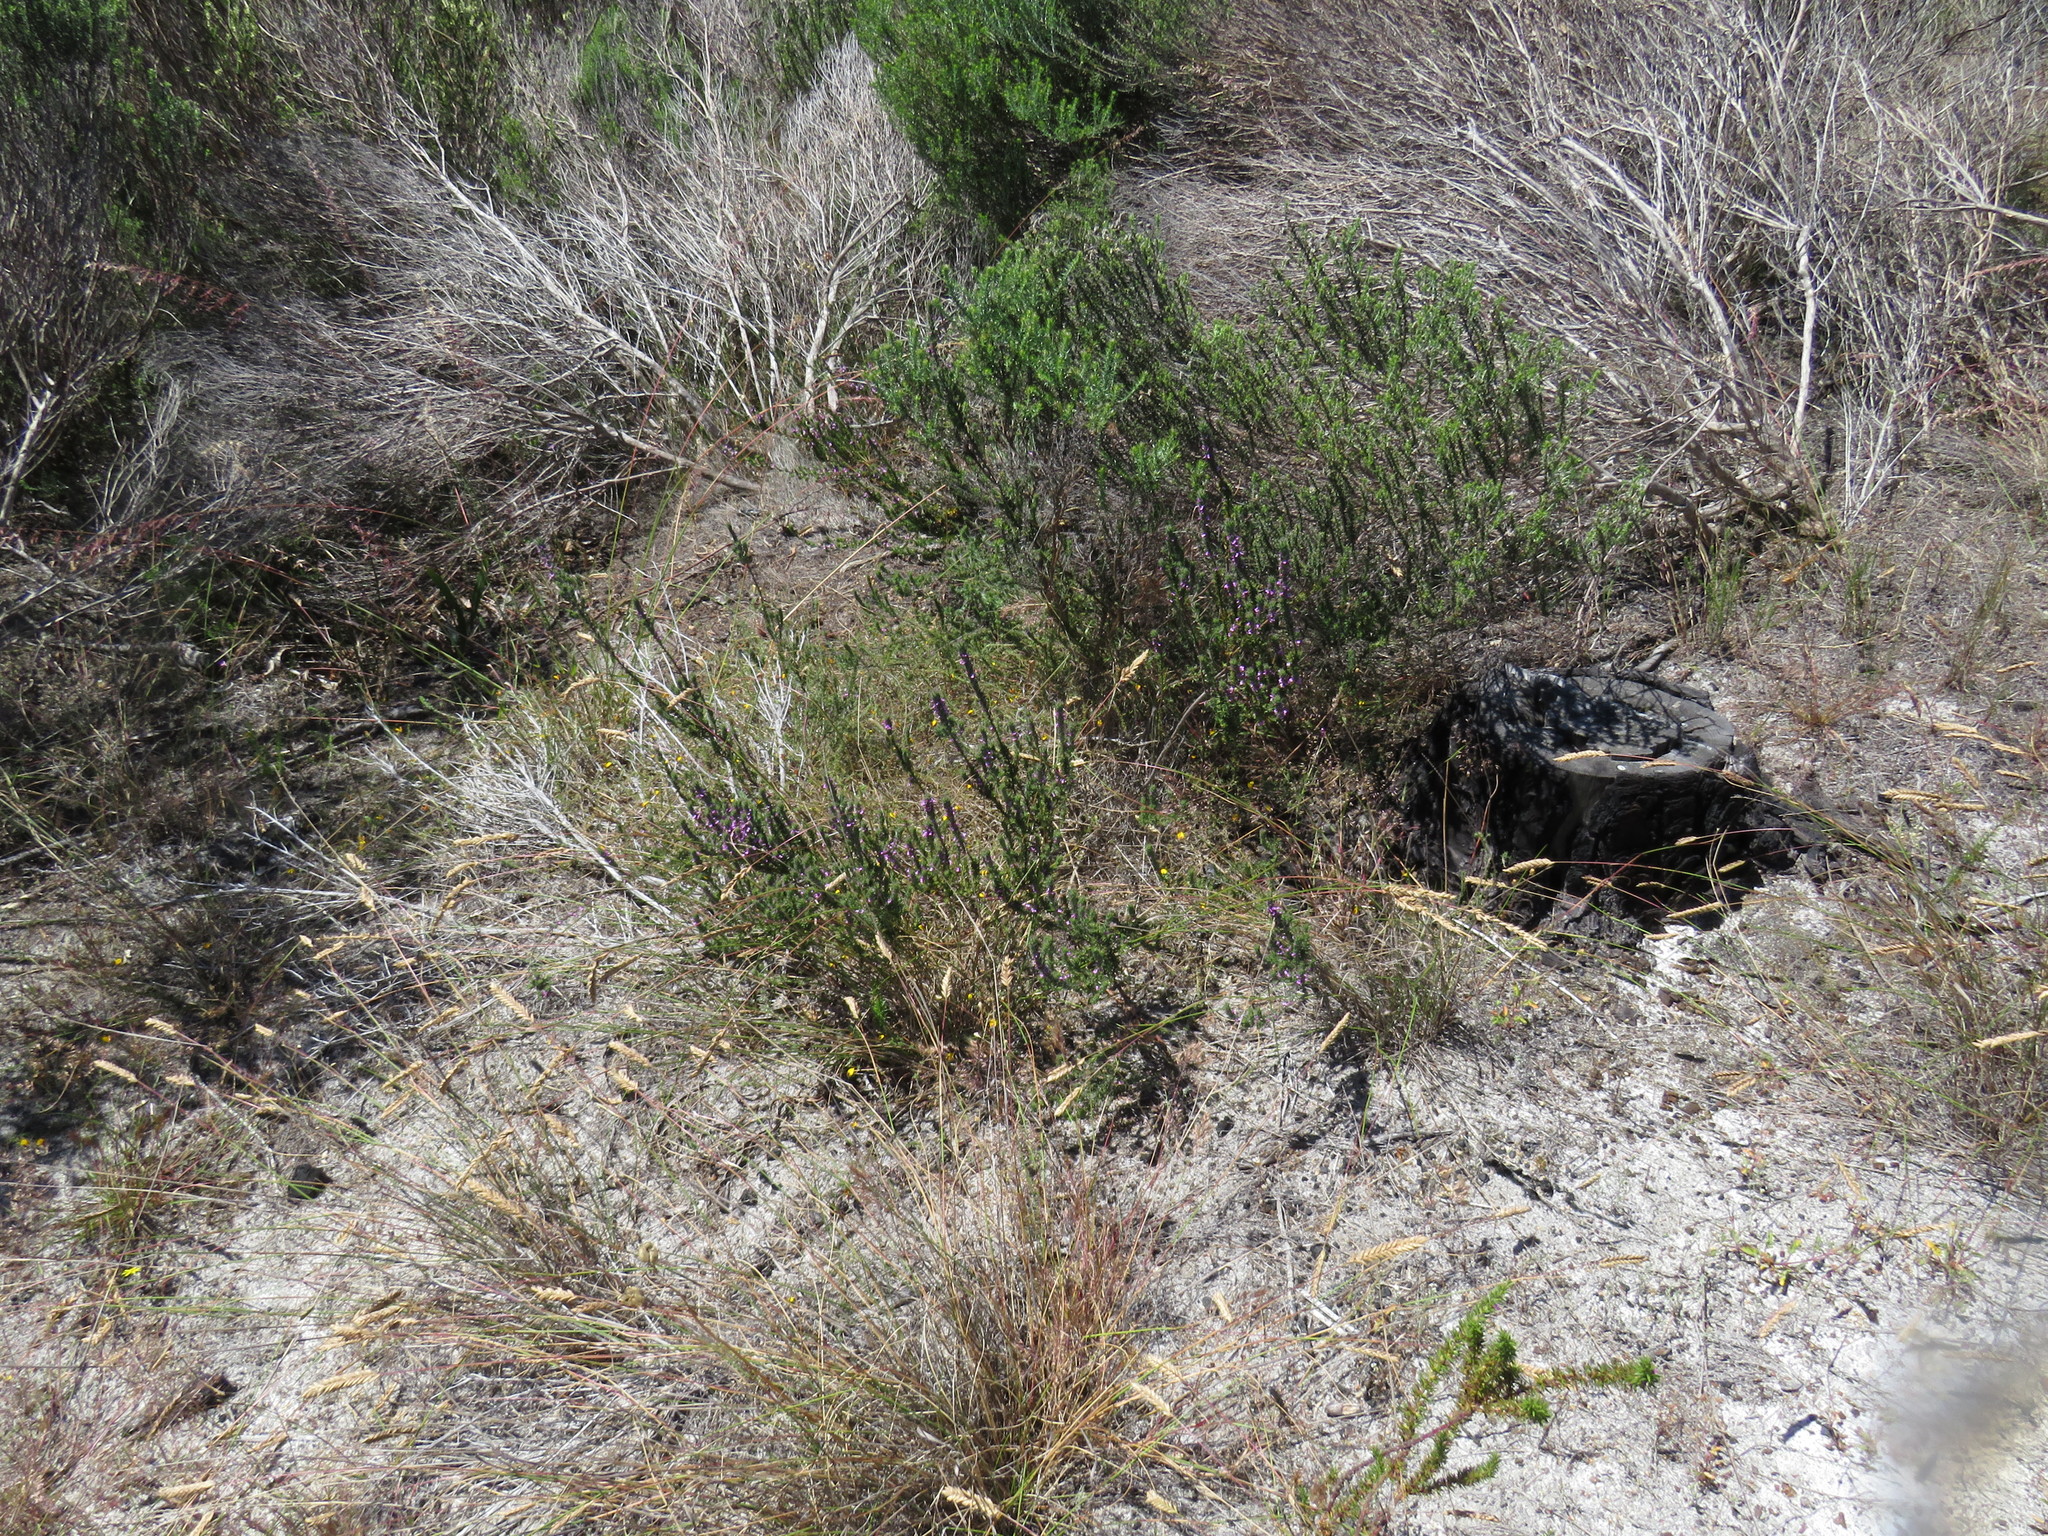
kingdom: Plantae
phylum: Tracheophyta
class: Magnoliopsida
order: Fabales
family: Polygalaceae
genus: Muraltia
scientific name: Muraltia thymifolia
